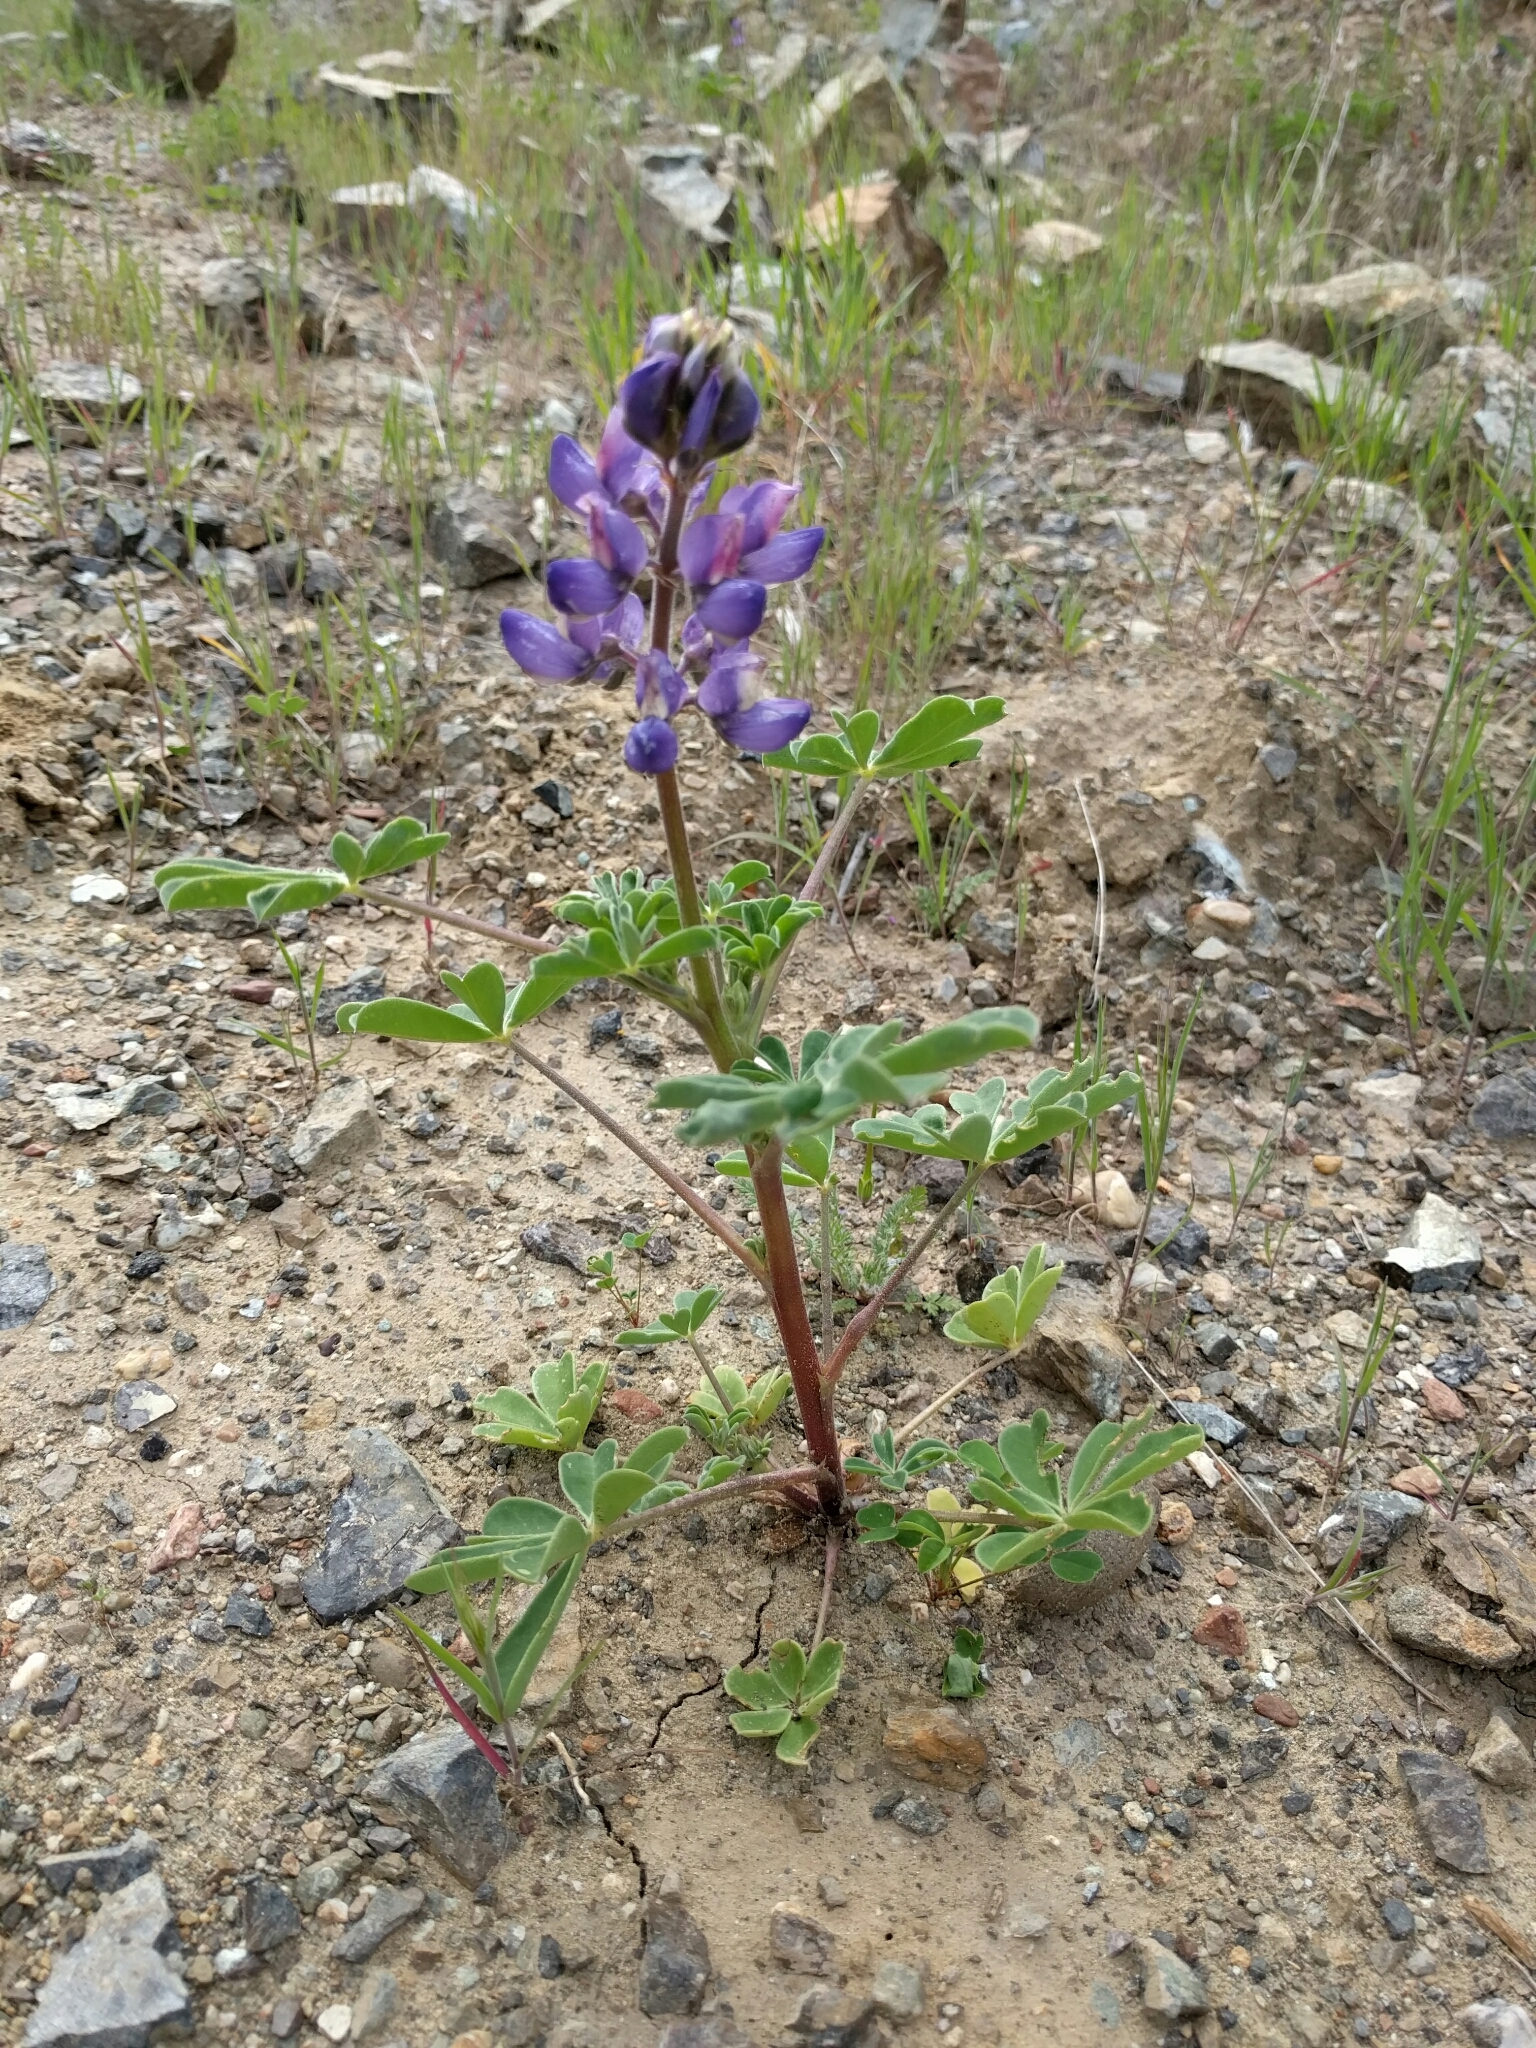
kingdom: Plantae
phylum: Tracheophyta
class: Magnoliopsida
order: Fabales
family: Fabaceae
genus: Lupinus
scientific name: Lupinus succulentus
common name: Arroyo lupine
